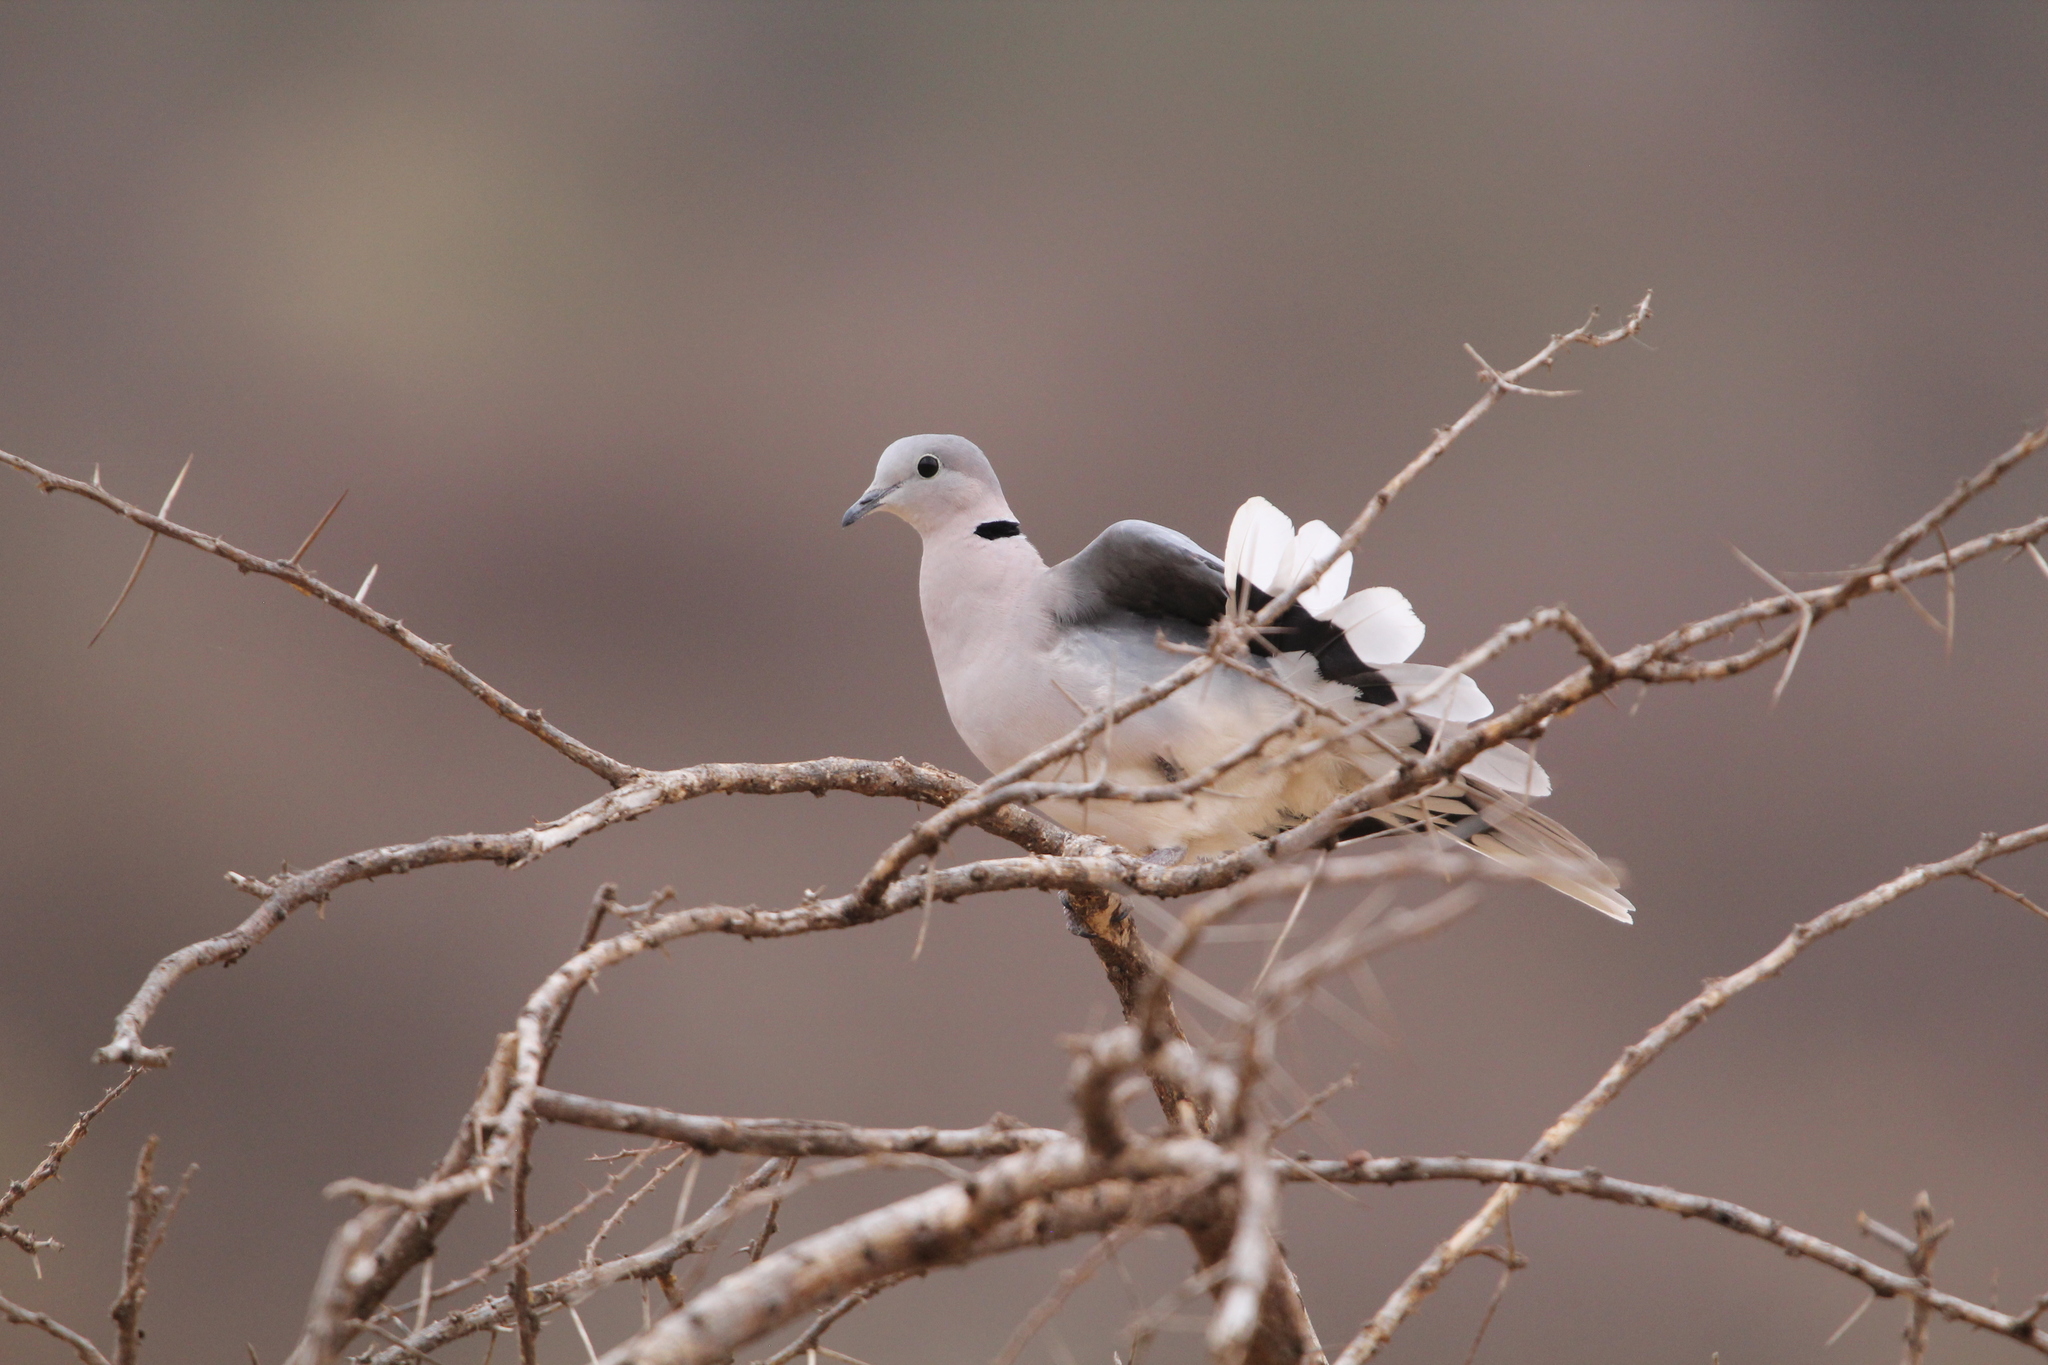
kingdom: Animalia
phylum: Chordata
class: Aves
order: Columbiformes
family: Columbidae
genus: Streptopelia
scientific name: Streptopelia capicola
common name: Ring-necked dove
